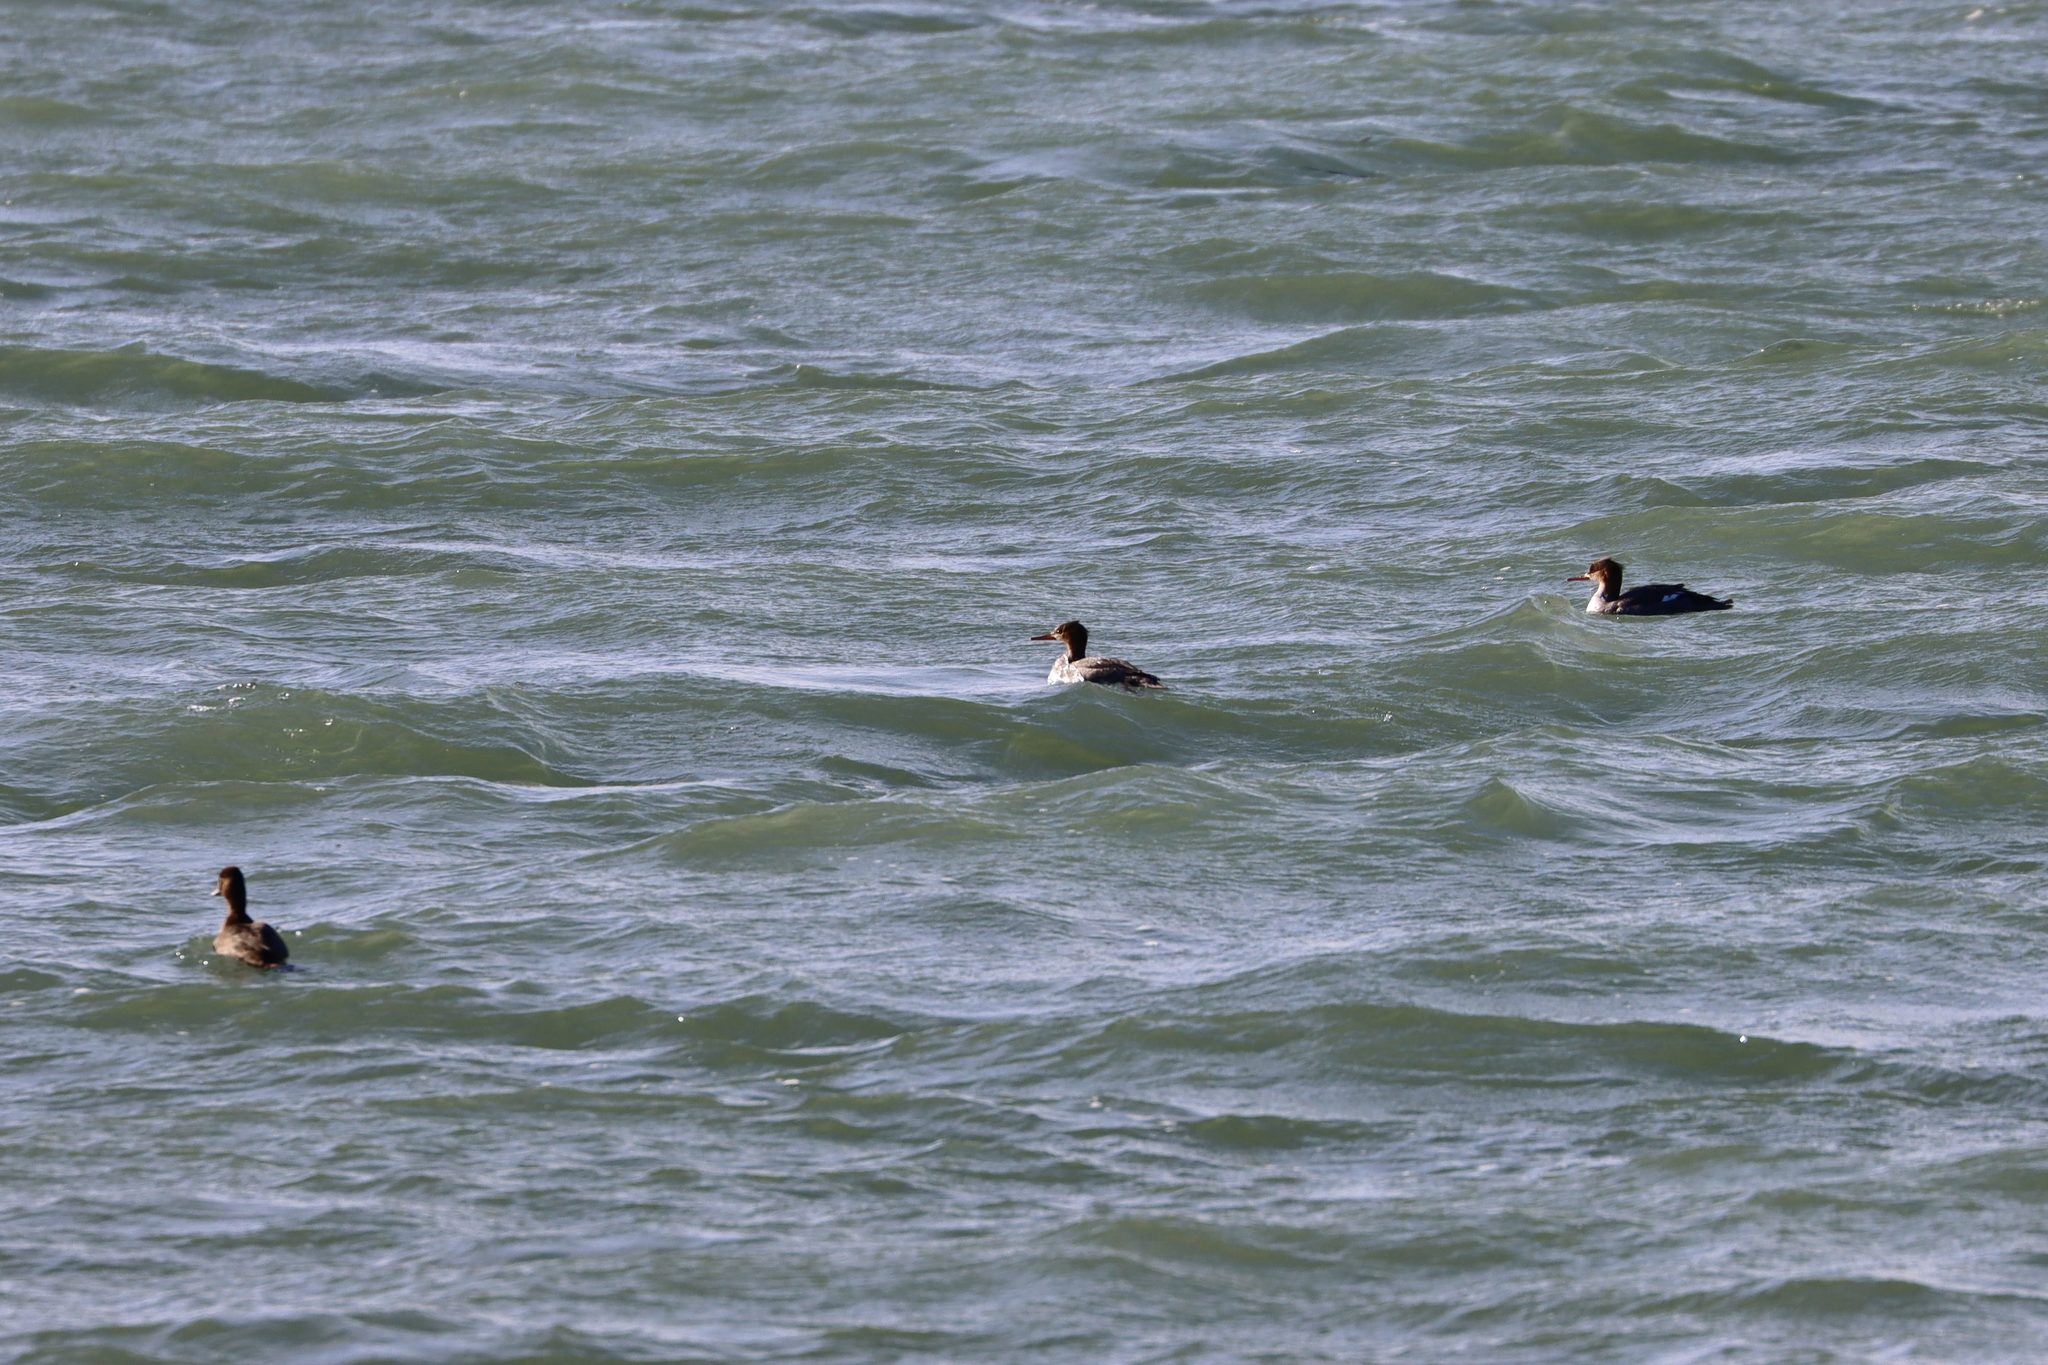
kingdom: Animalia
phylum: Chordata
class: Aves
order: Anseriformes
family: Anatidae
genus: Mergus
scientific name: Mergus serrator
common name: Red-breasted merganser
